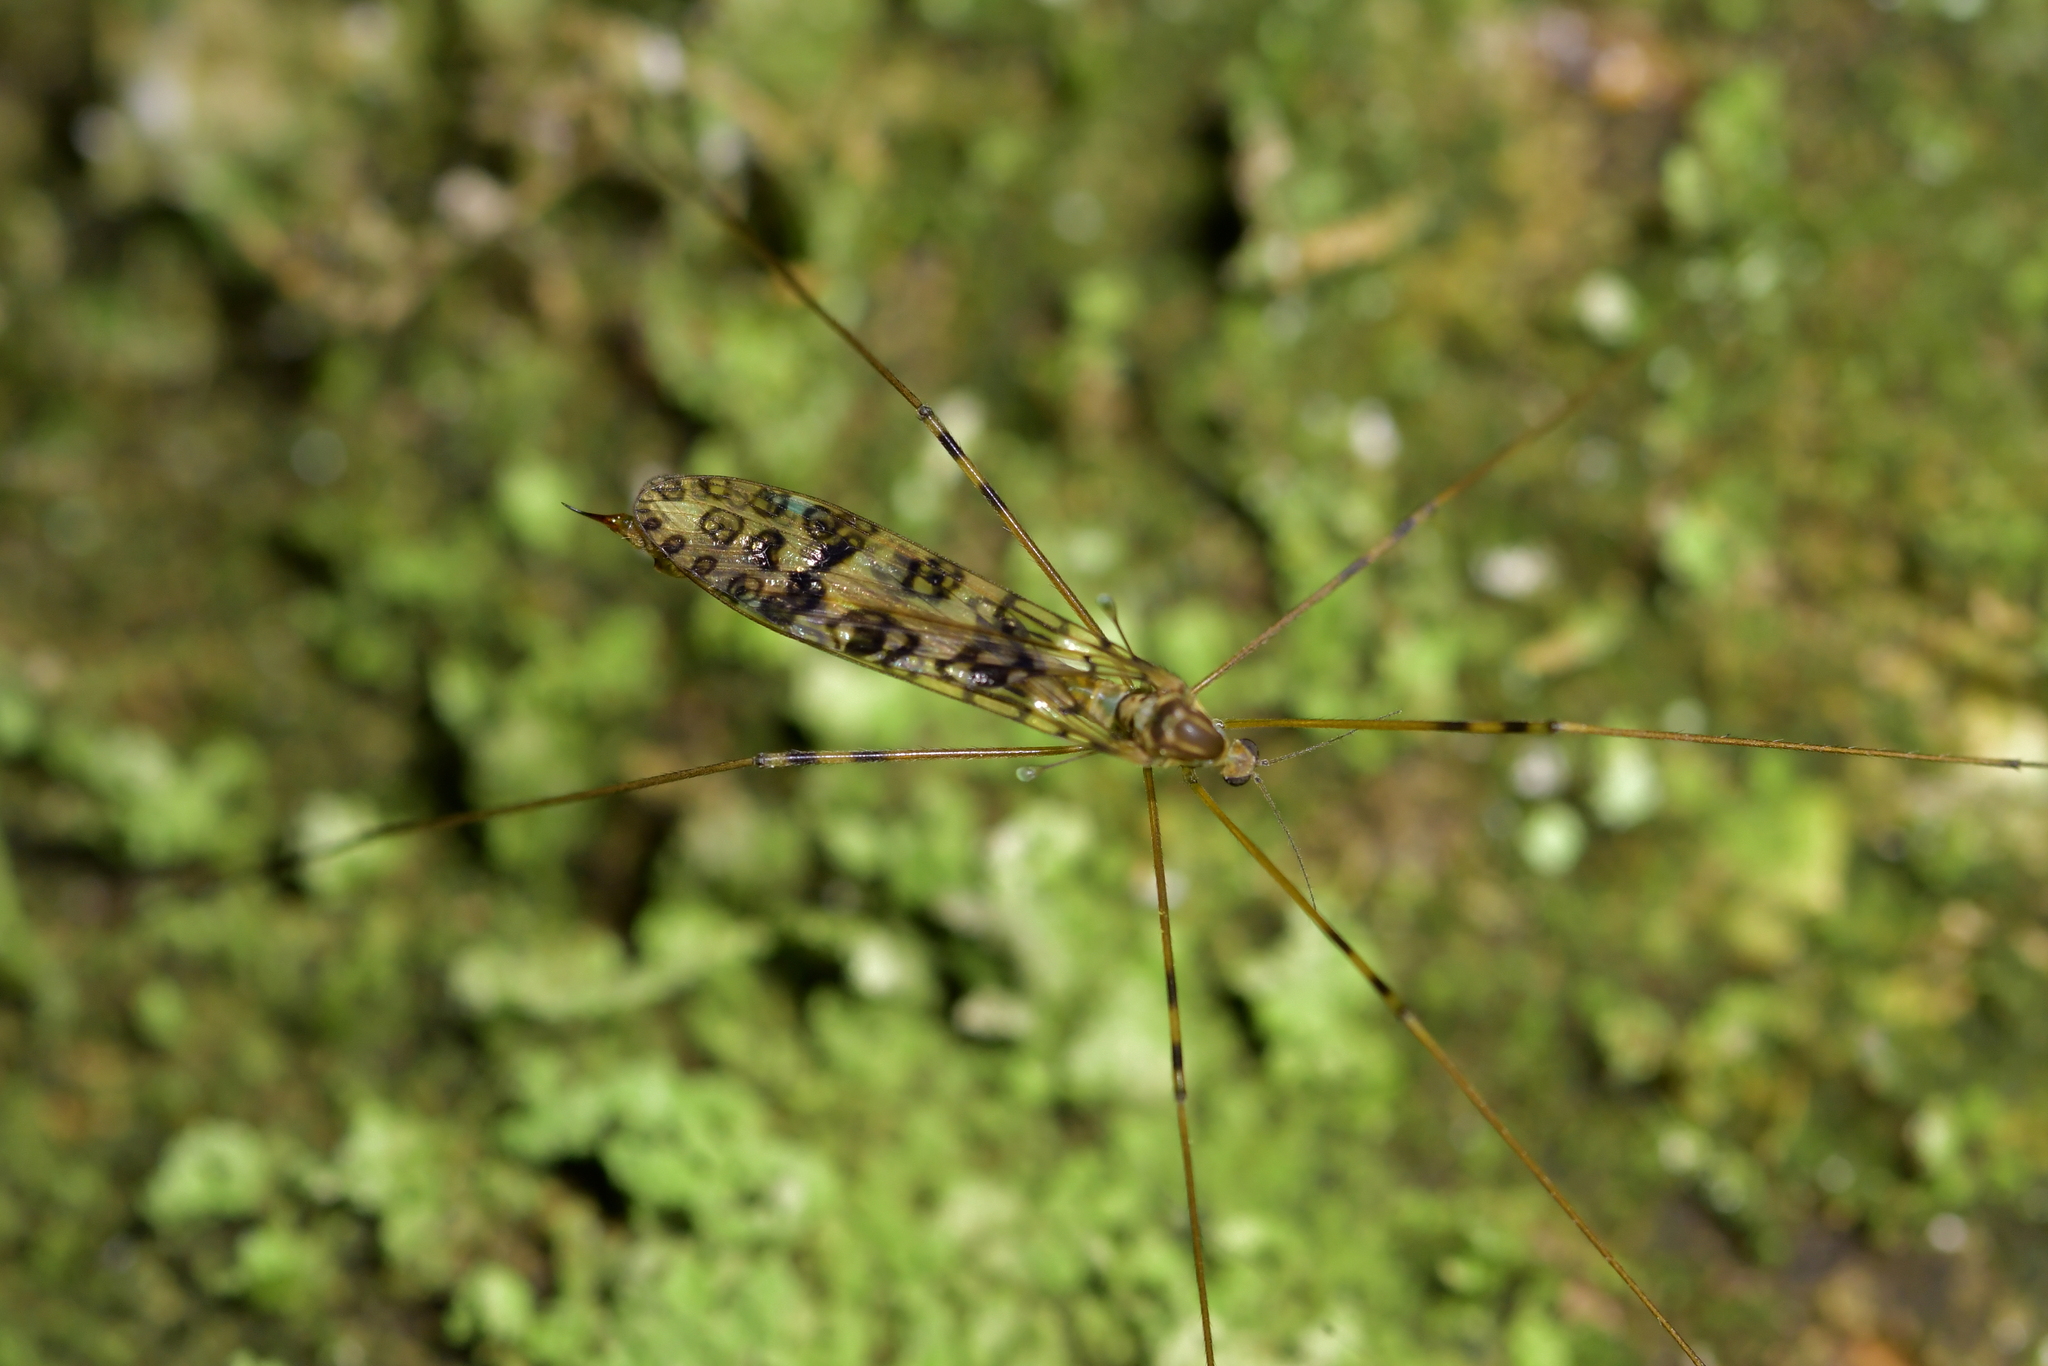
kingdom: Animalia
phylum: Arthropoda
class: Insecta
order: Diptera
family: Limoniidae
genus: Austrolimnophila
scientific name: Austrolimnophila argus
